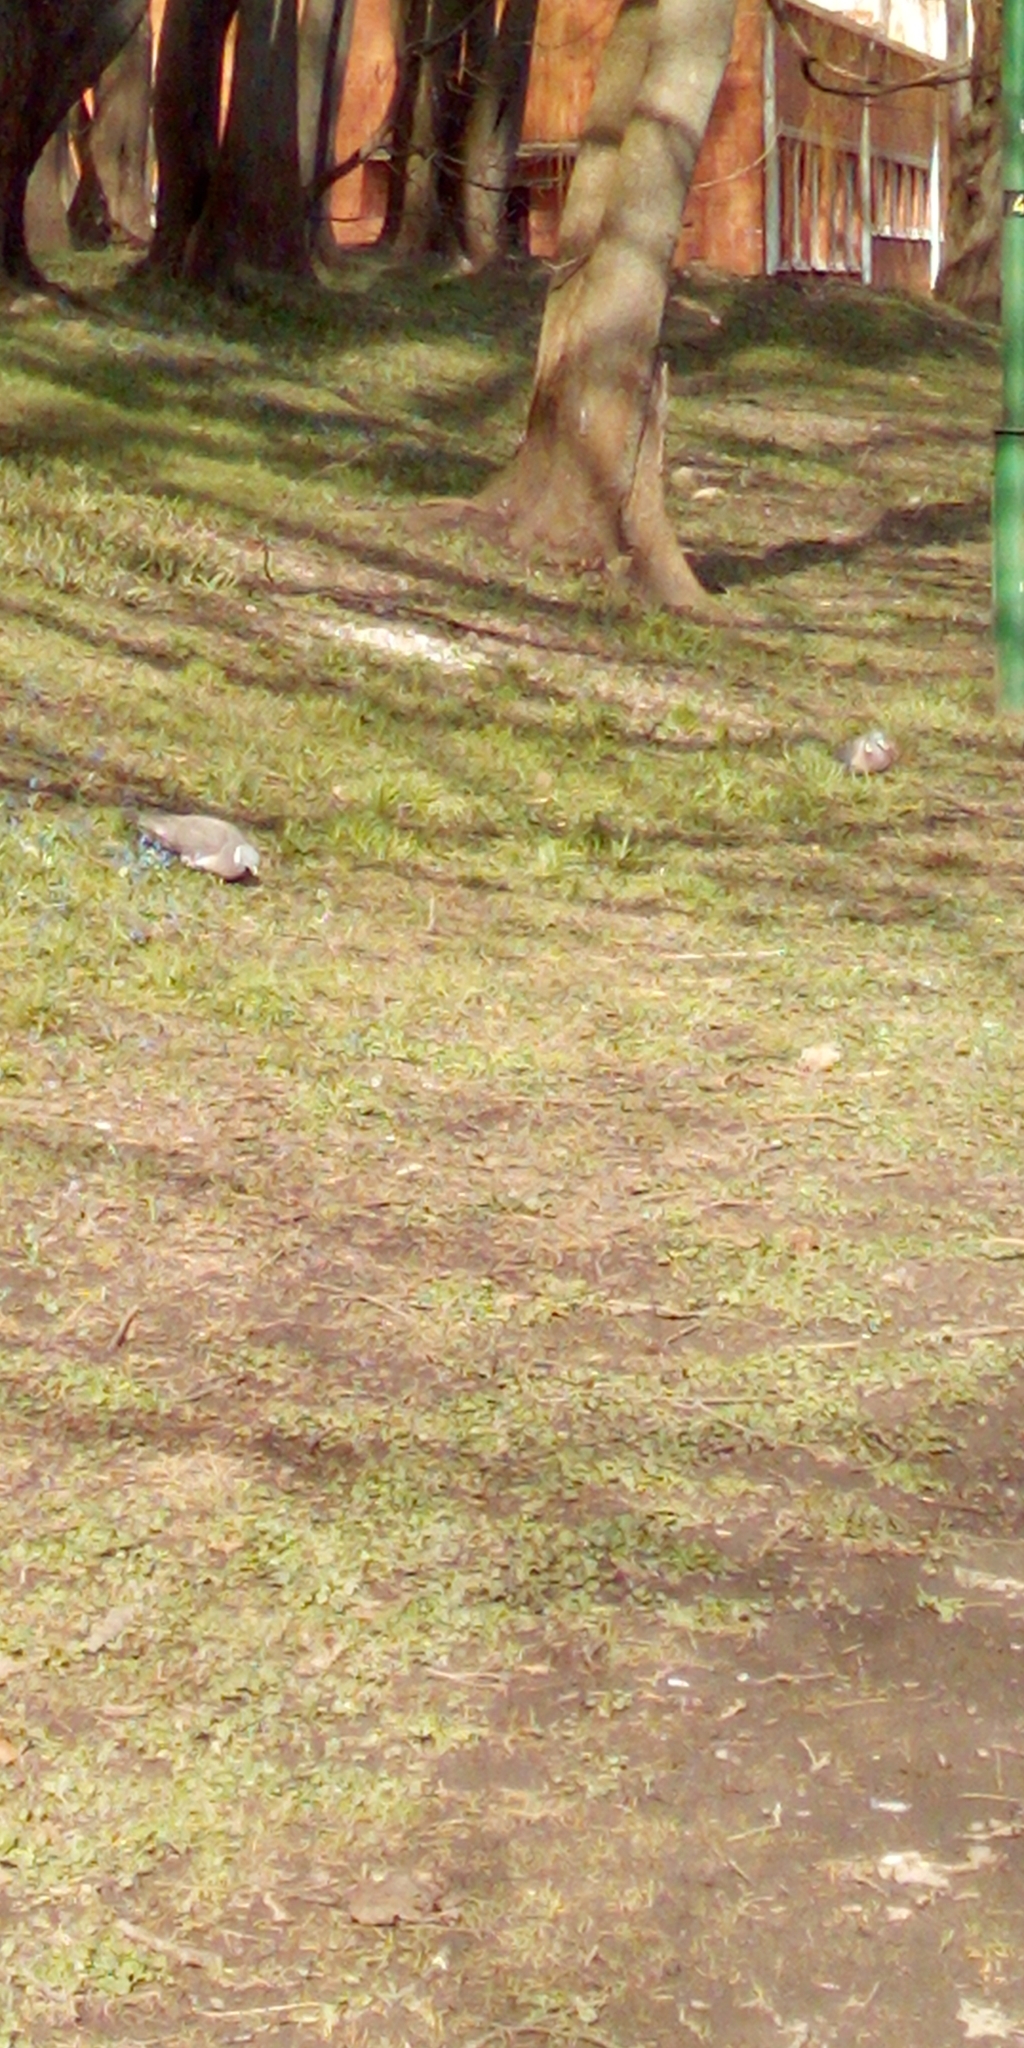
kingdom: Animalia
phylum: Chordata
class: Aves
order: Columbiformes
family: Columbidae
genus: Columba
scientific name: Columba palumbus
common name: Common wood pigeon
